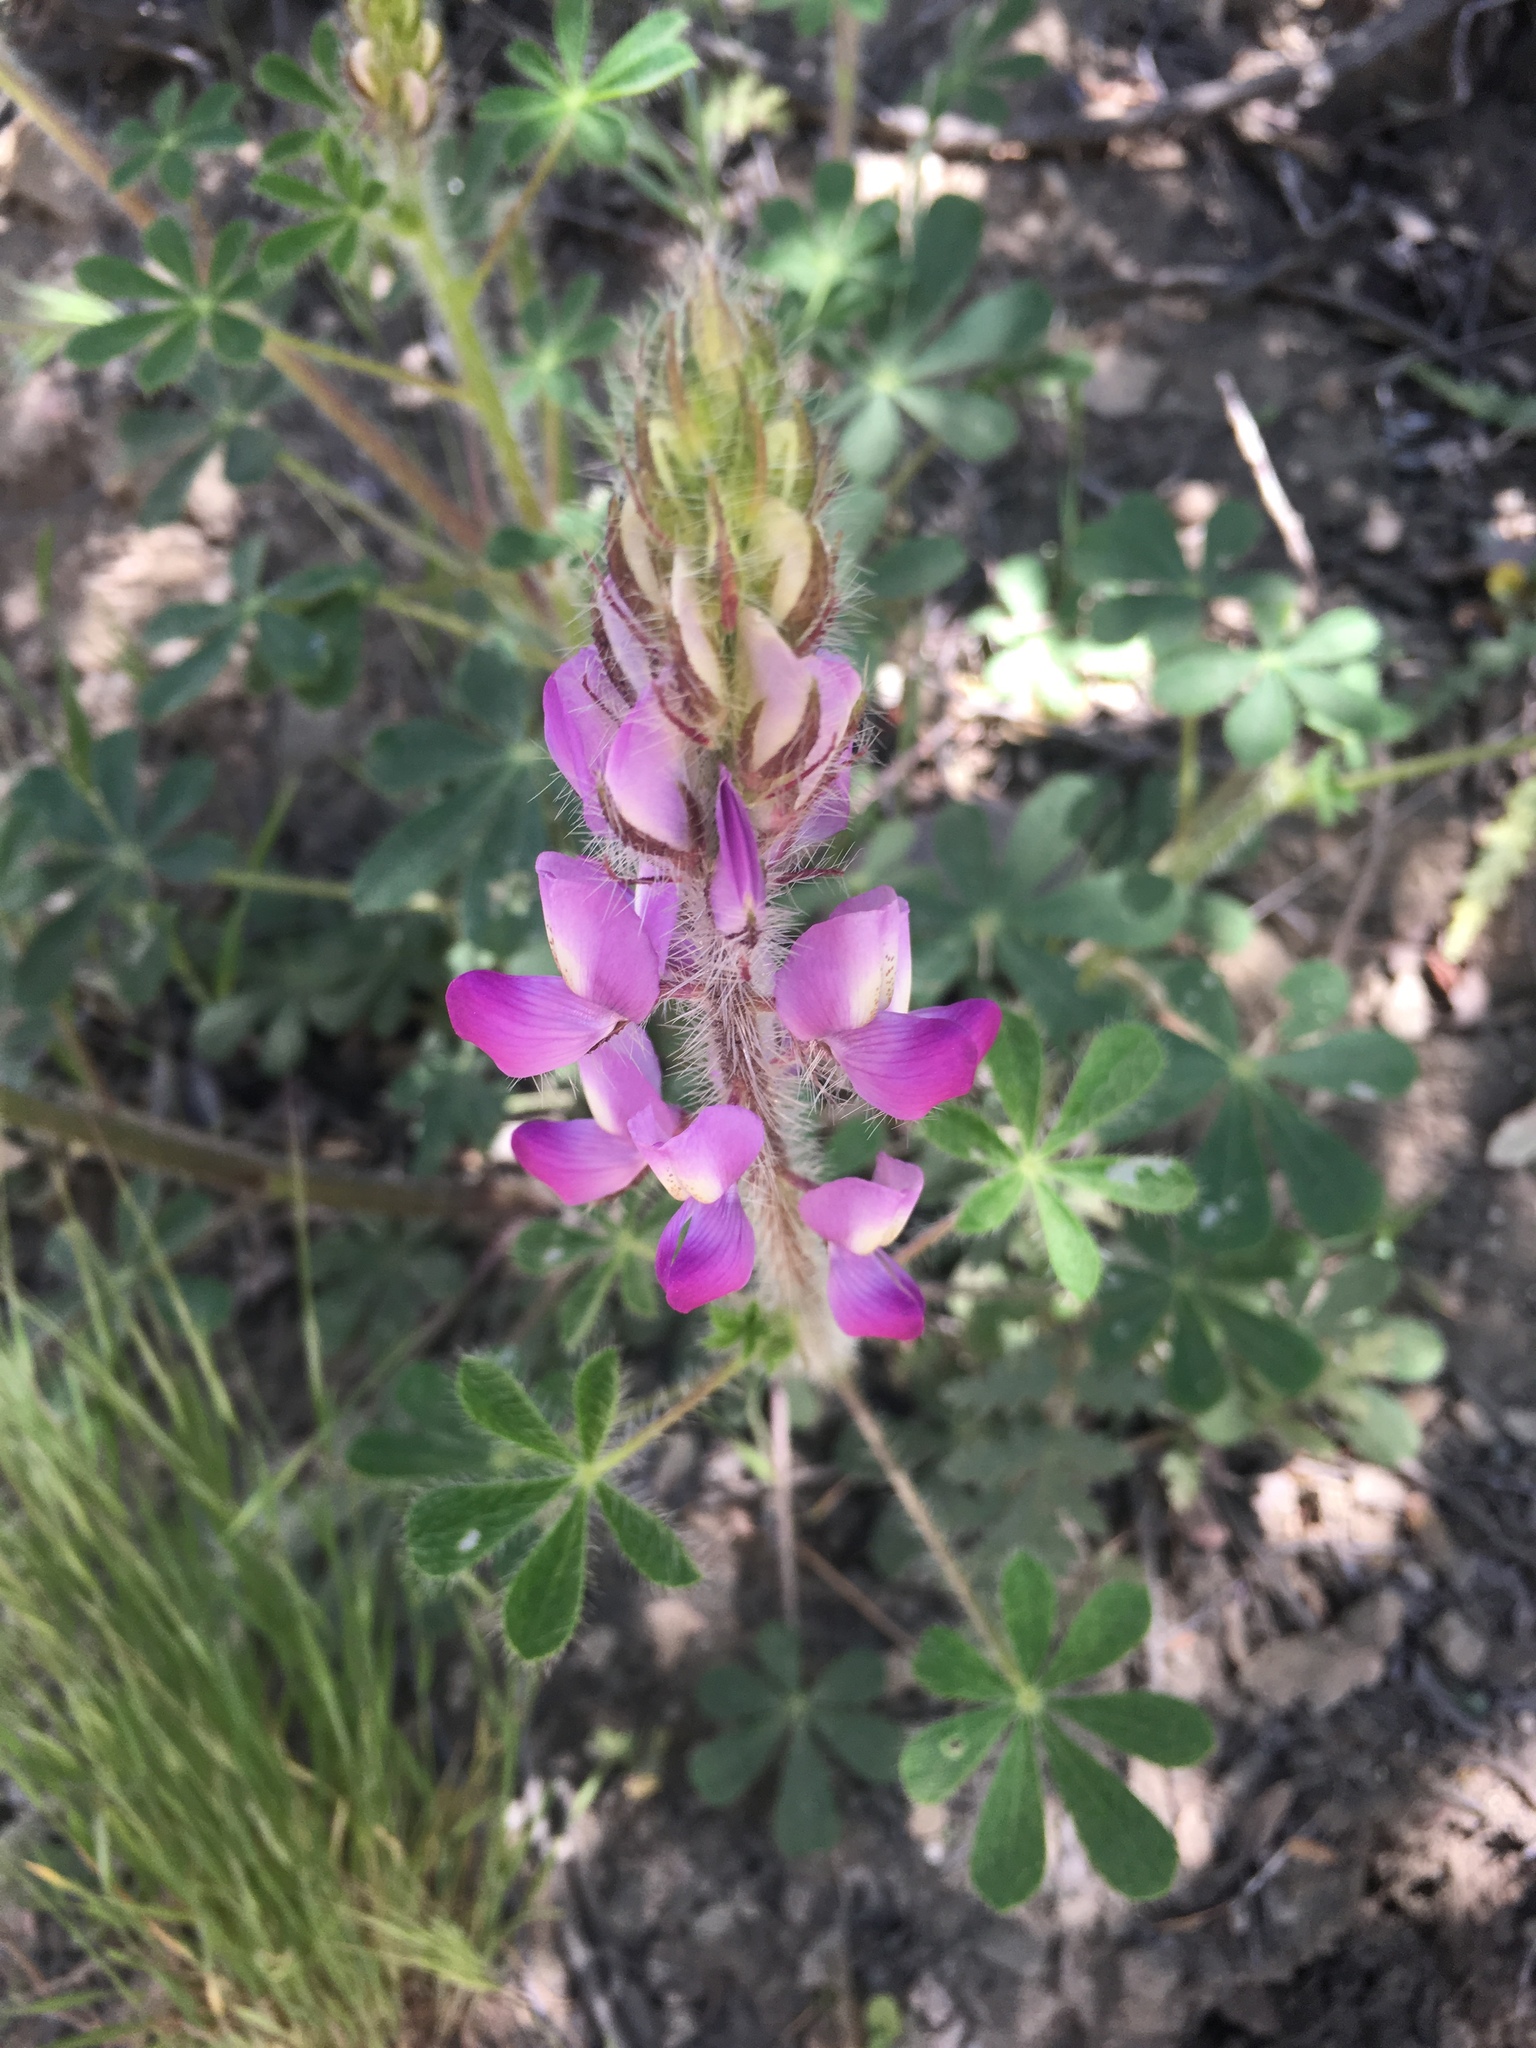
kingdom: Plantae
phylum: Tracheophyta
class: Magnoliopsida
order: Fabales
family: Fabaceae
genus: Lupinus
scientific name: Lupinus hirsutissimus
